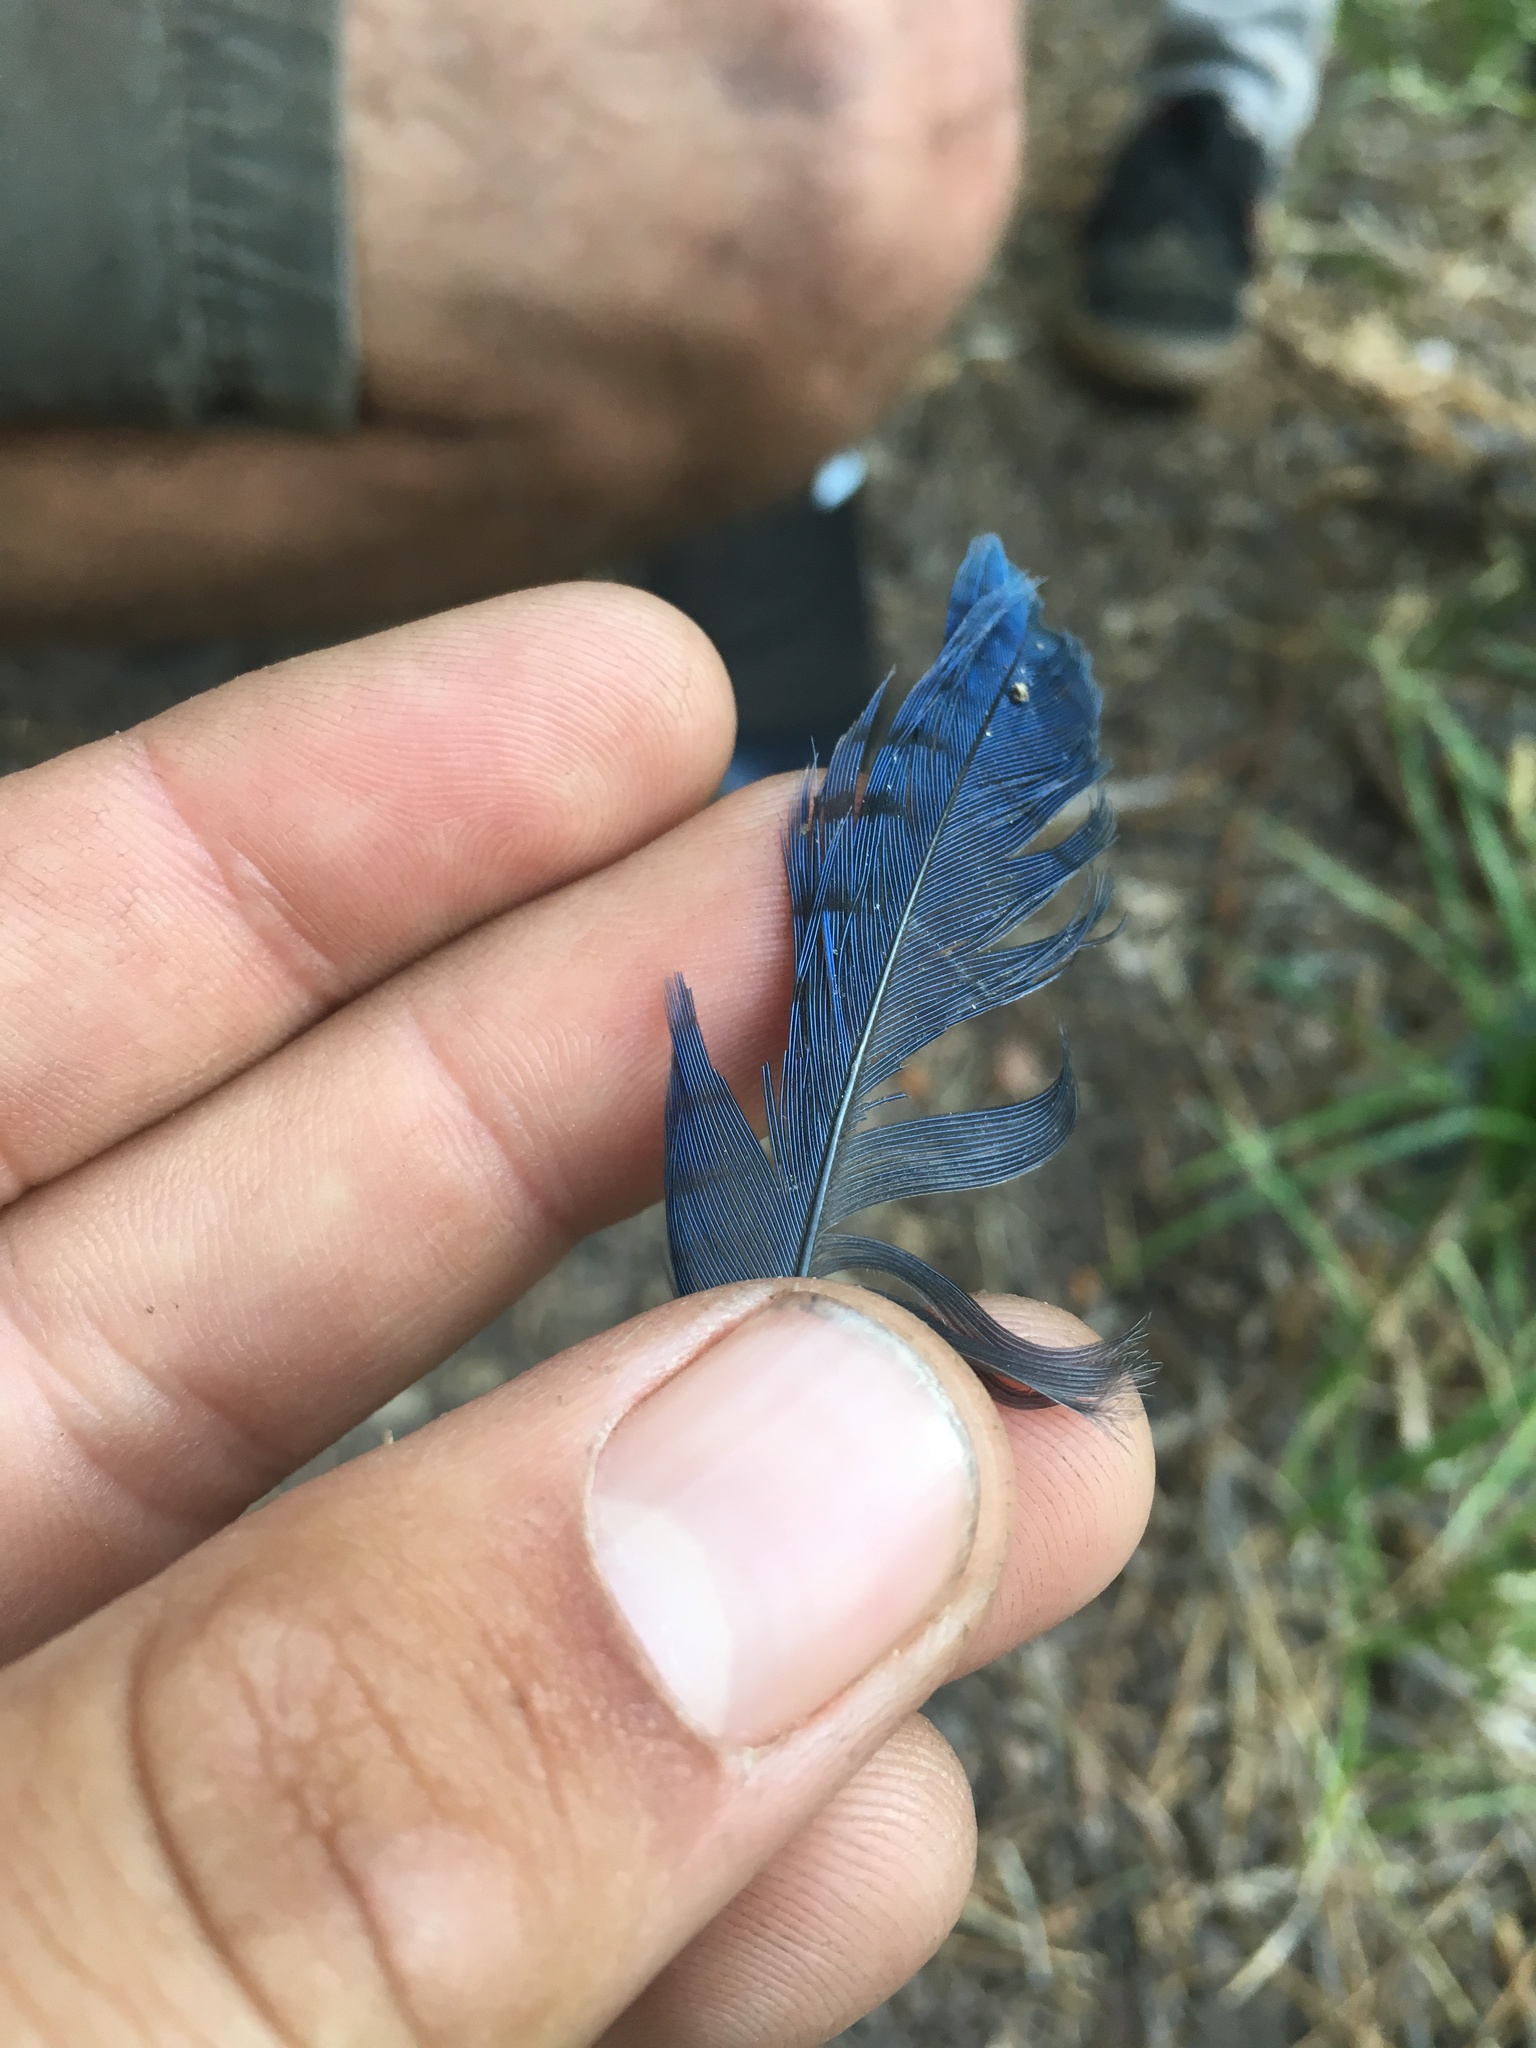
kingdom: Animalia
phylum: Chordata
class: Aves
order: Passeriformes
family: Corvidae
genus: Cyanocitta
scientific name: Cyanocitta stelleri
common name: Steller's jay
